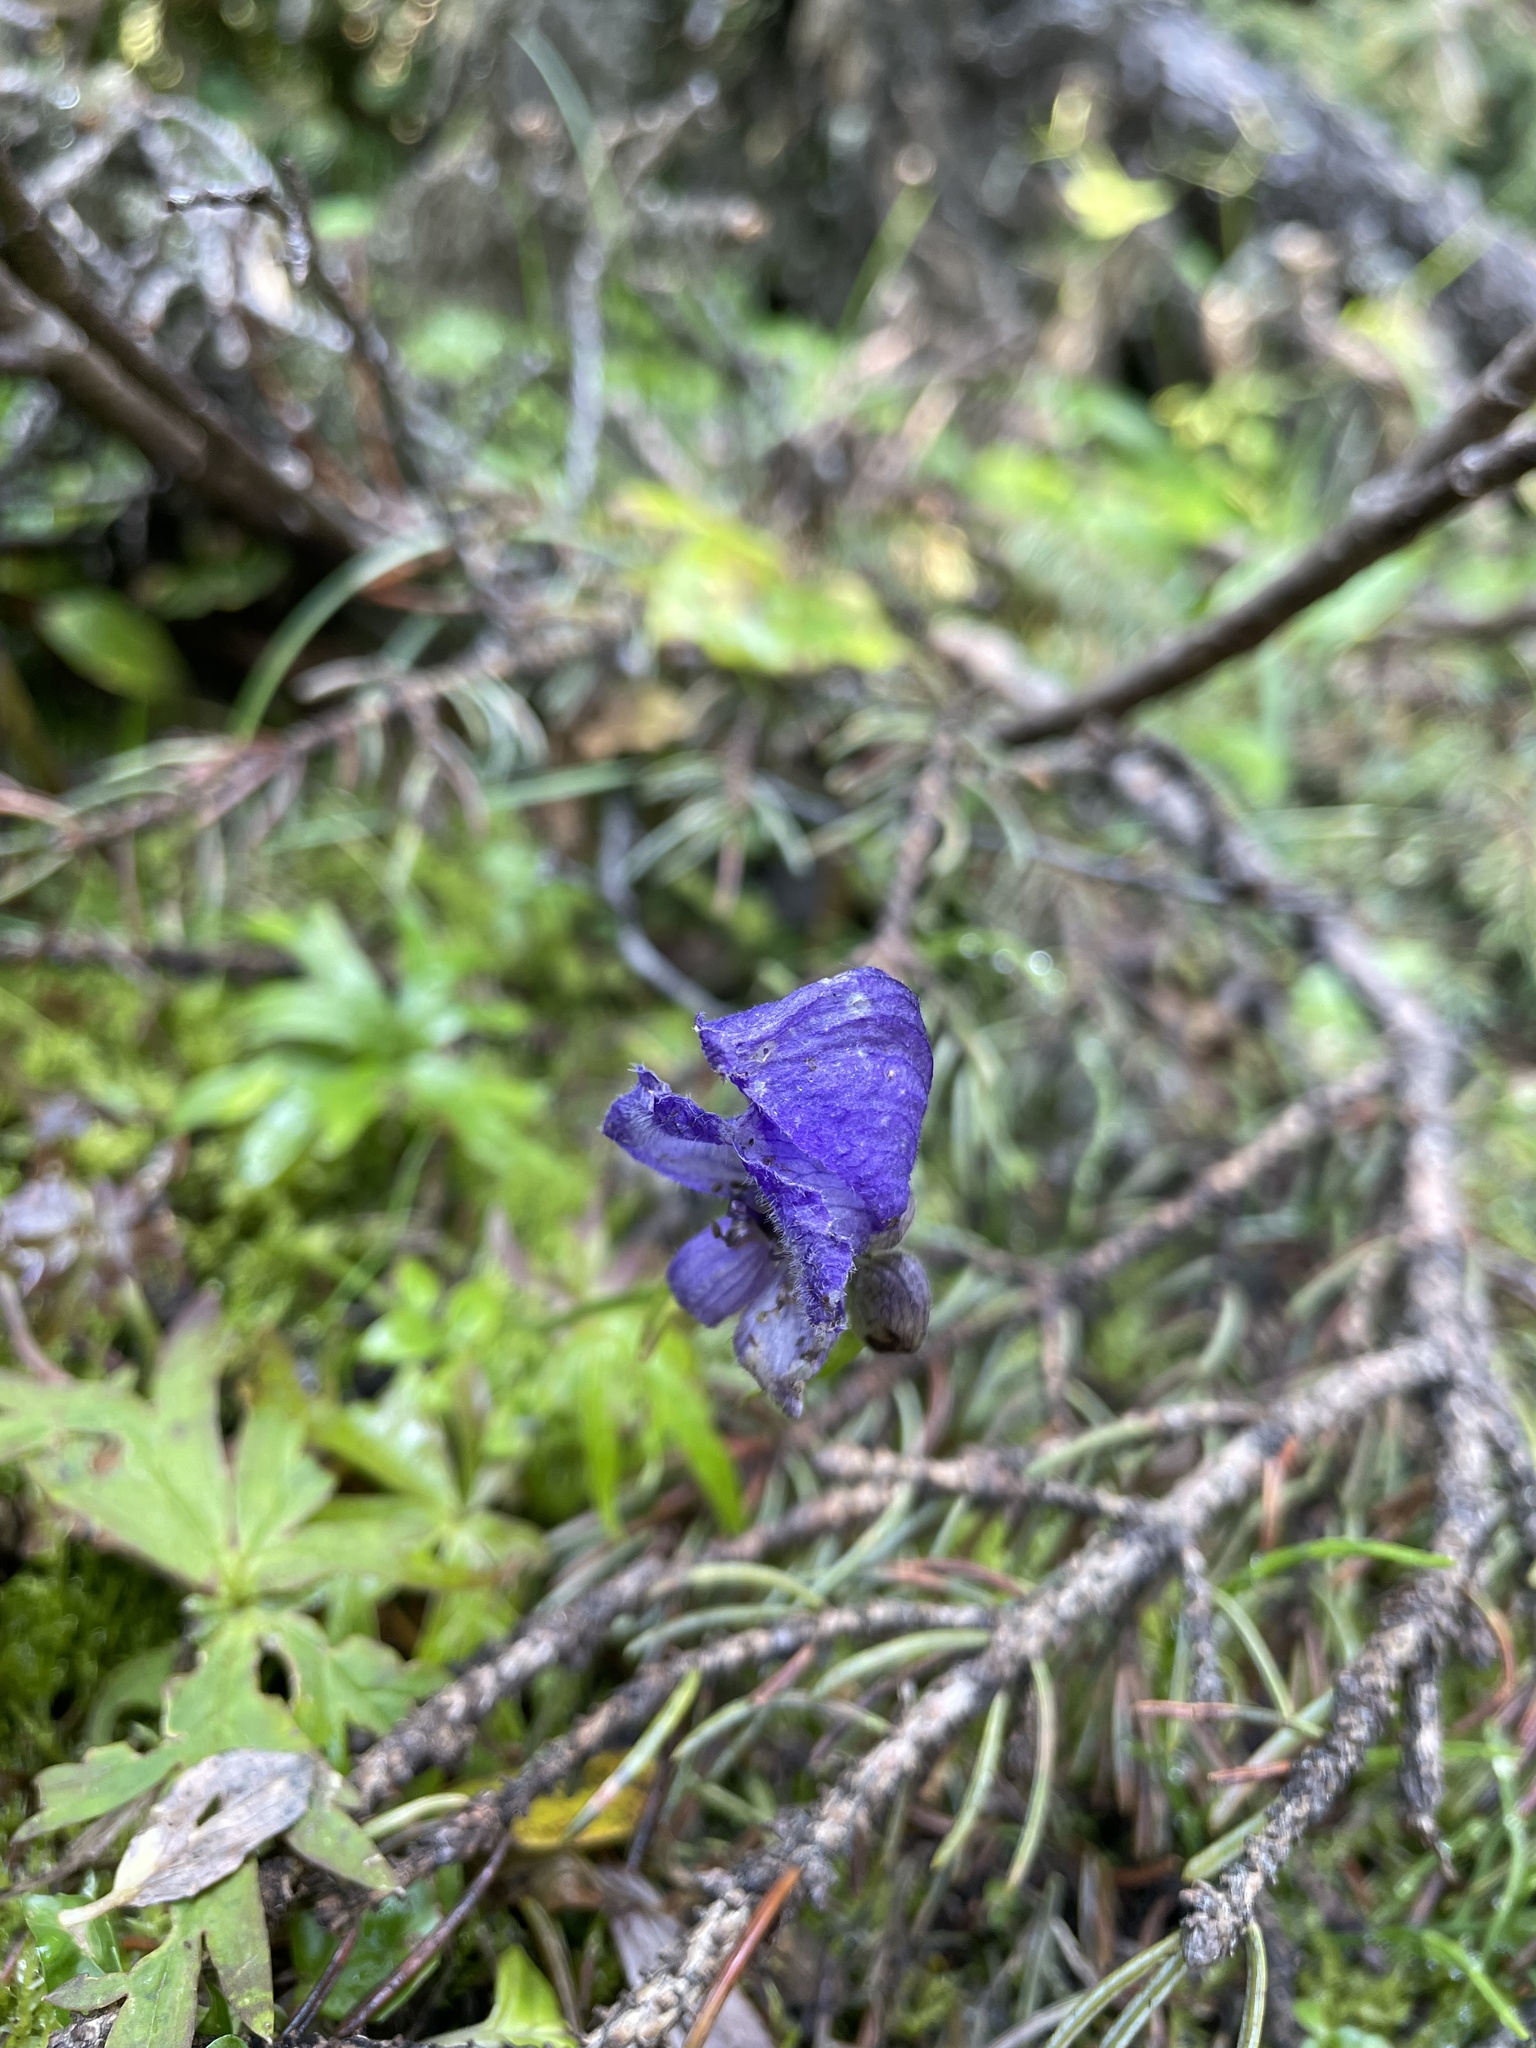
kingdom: Plantae
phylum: Tracheophyta
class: Magnoliopsida
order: Ranunculales
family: Ranunculaceae
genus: Aconitum
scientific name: Aconitum delphiniifolium
